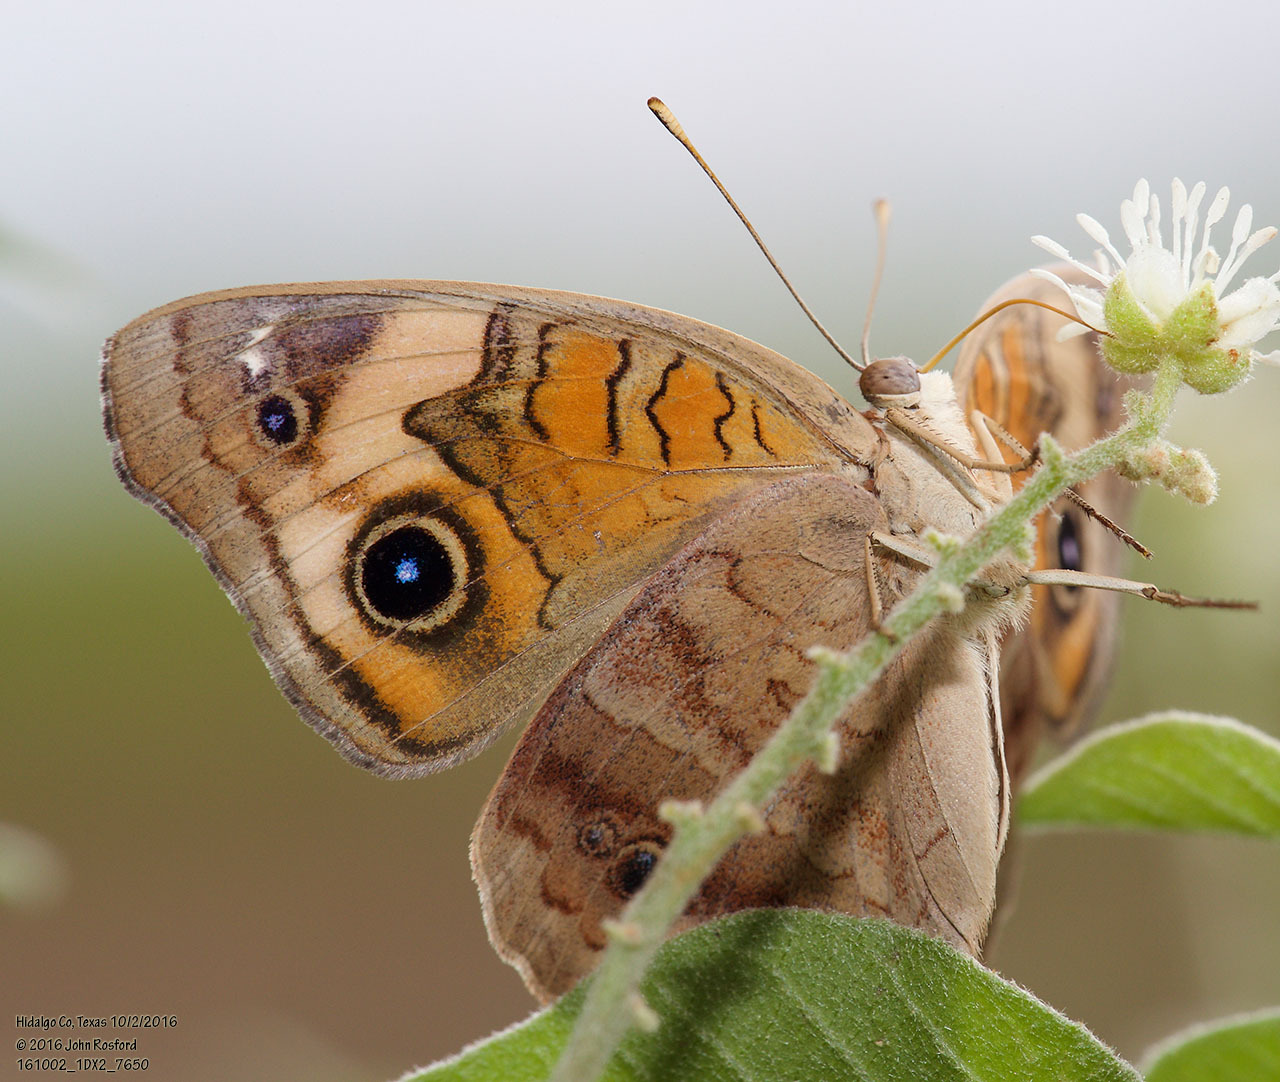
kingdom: Animalia
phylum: Arthropoda
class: Insecta
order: Lepidoptera
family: Nymphalidae
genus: Junonia
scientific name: Junonia coenia
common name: Common buckeye
